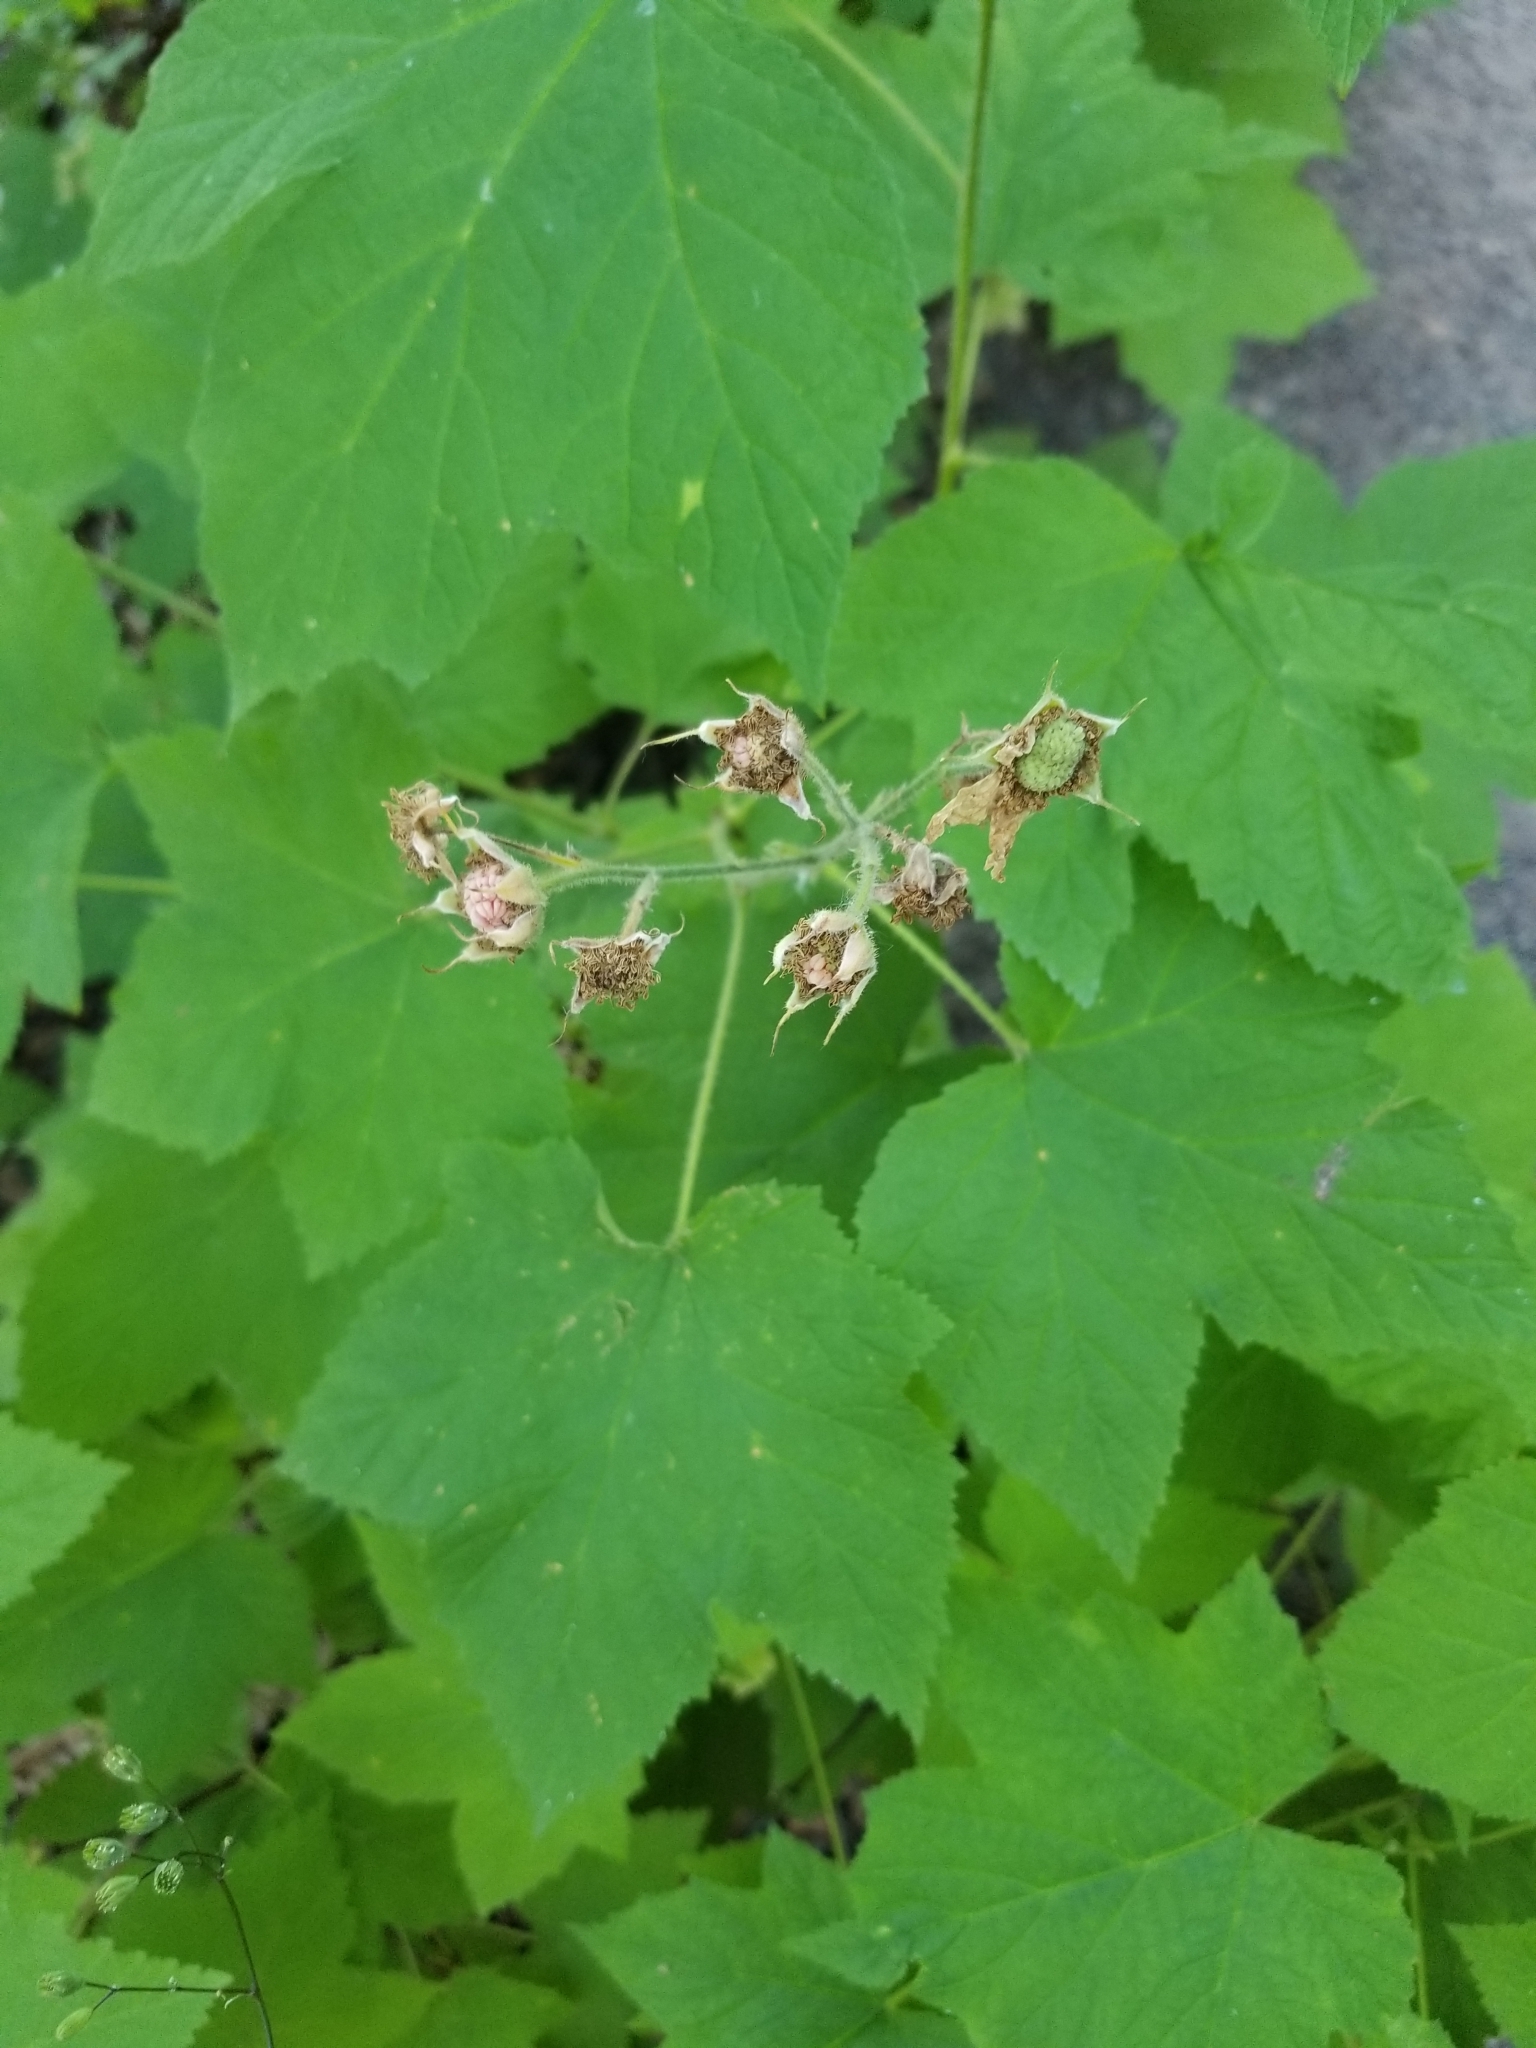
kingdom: Plantae
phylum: Tracheophyta
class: Magnoliopsida
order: Rosales
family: Rosaceae
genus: Rubus
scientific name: Rubus parviflorus
